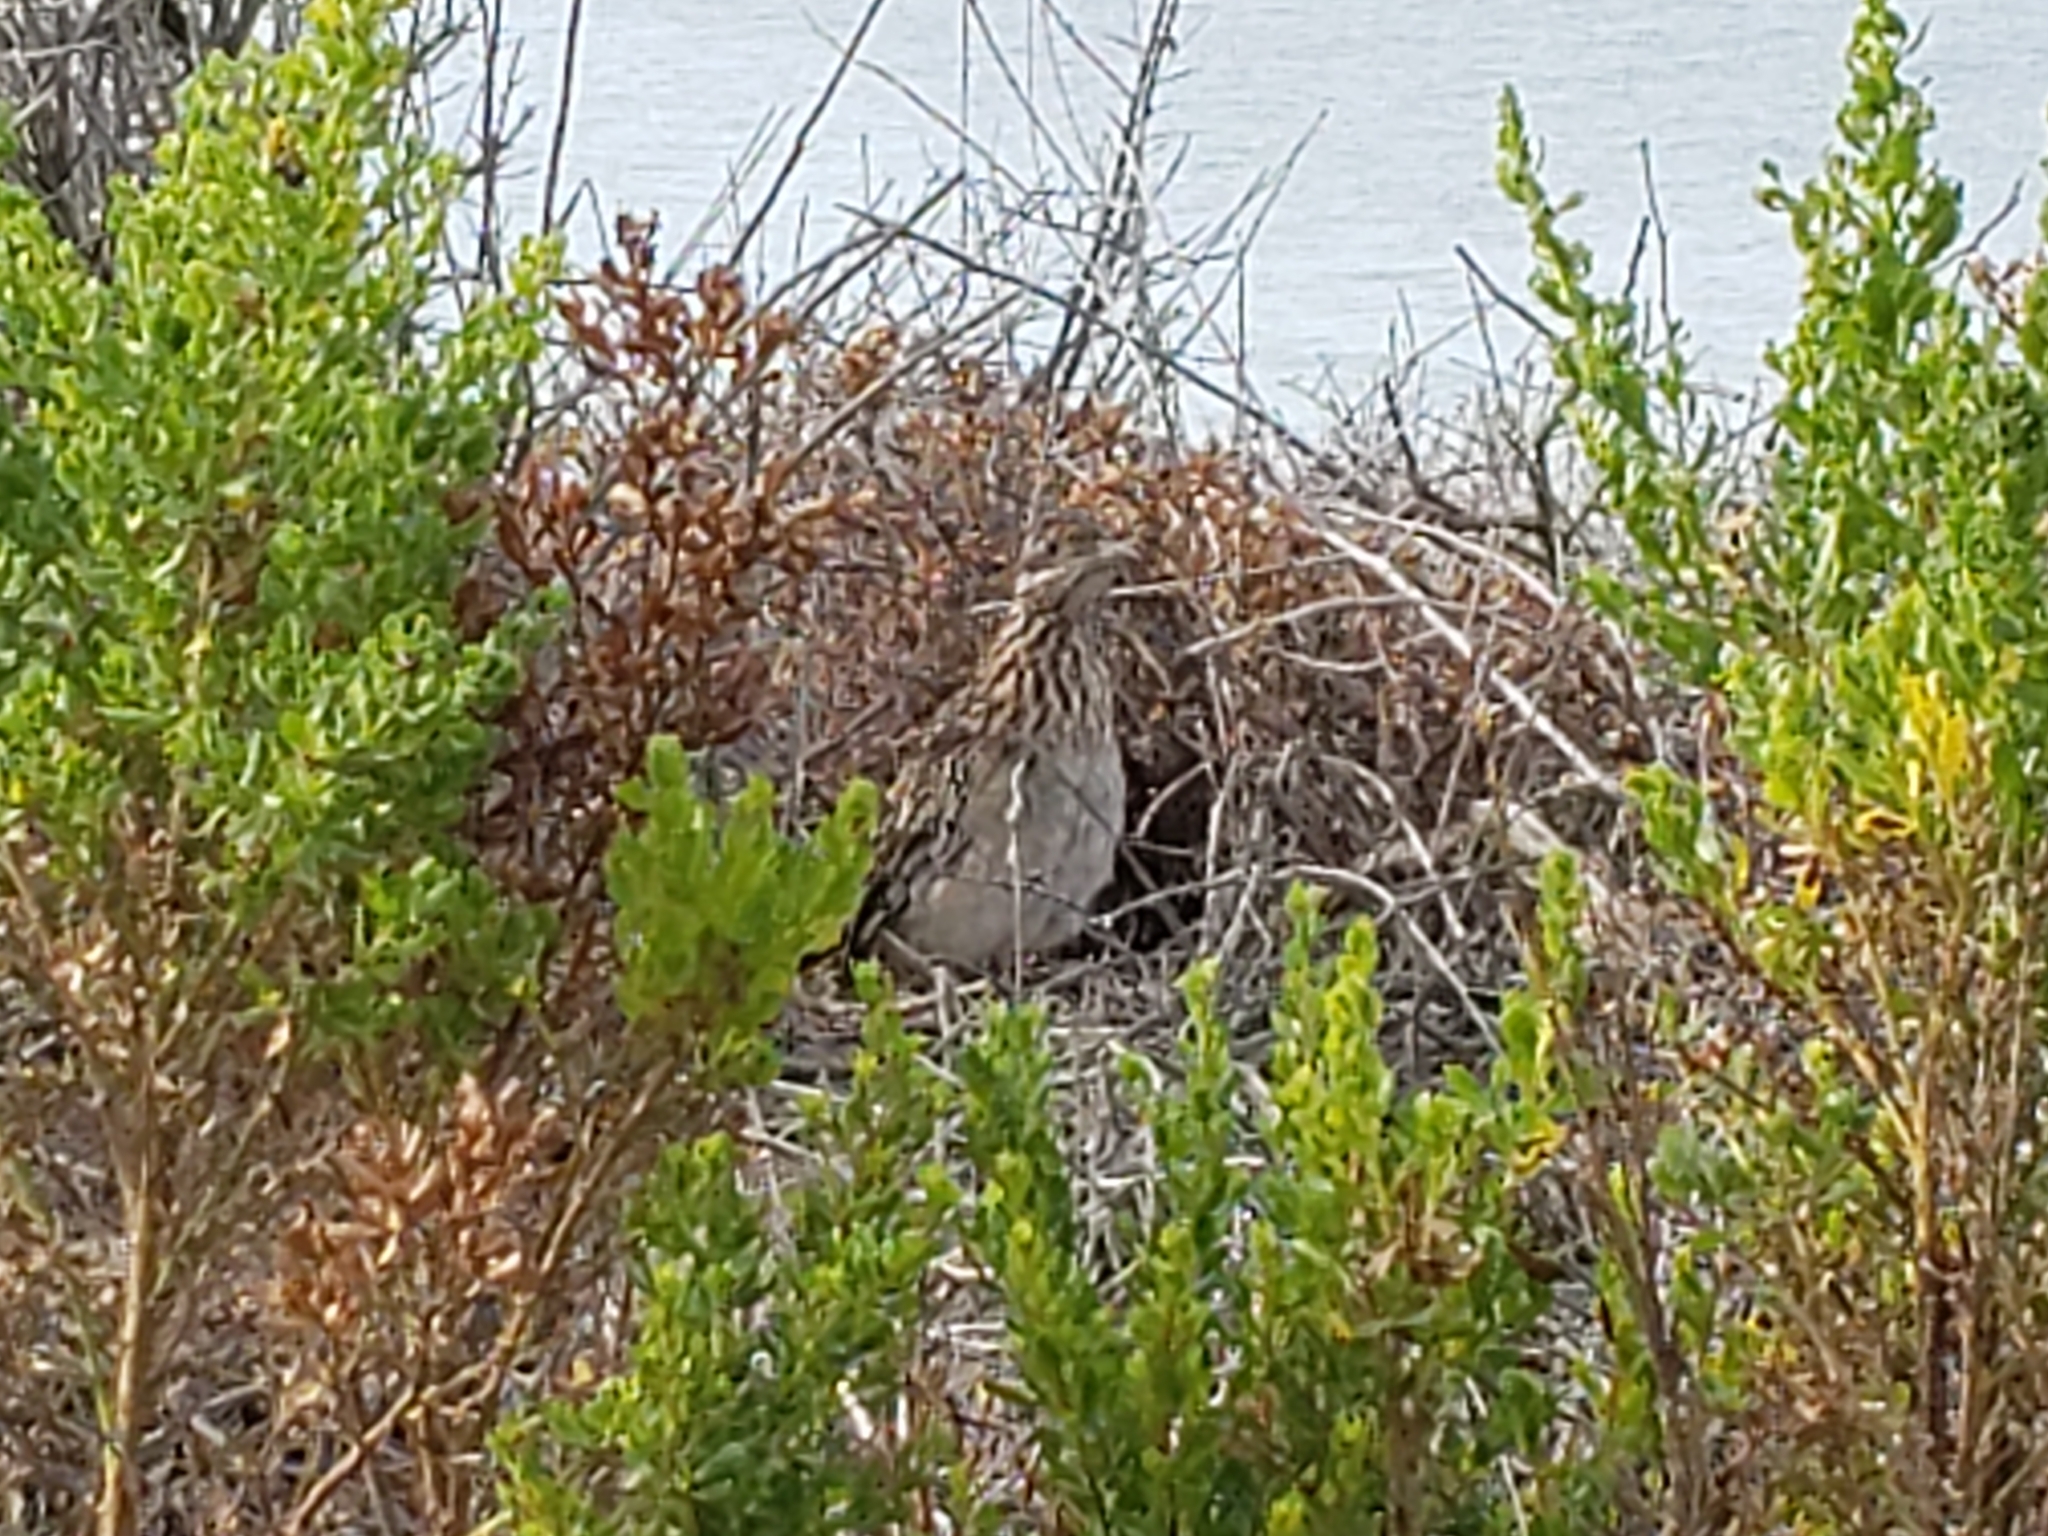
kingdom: Animalia
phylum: Chordata
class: Aves
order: Cuculiformes
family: Cuculidae
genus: Geococcyx
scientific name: Geococcyx californianus
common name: Greater roadrunner
